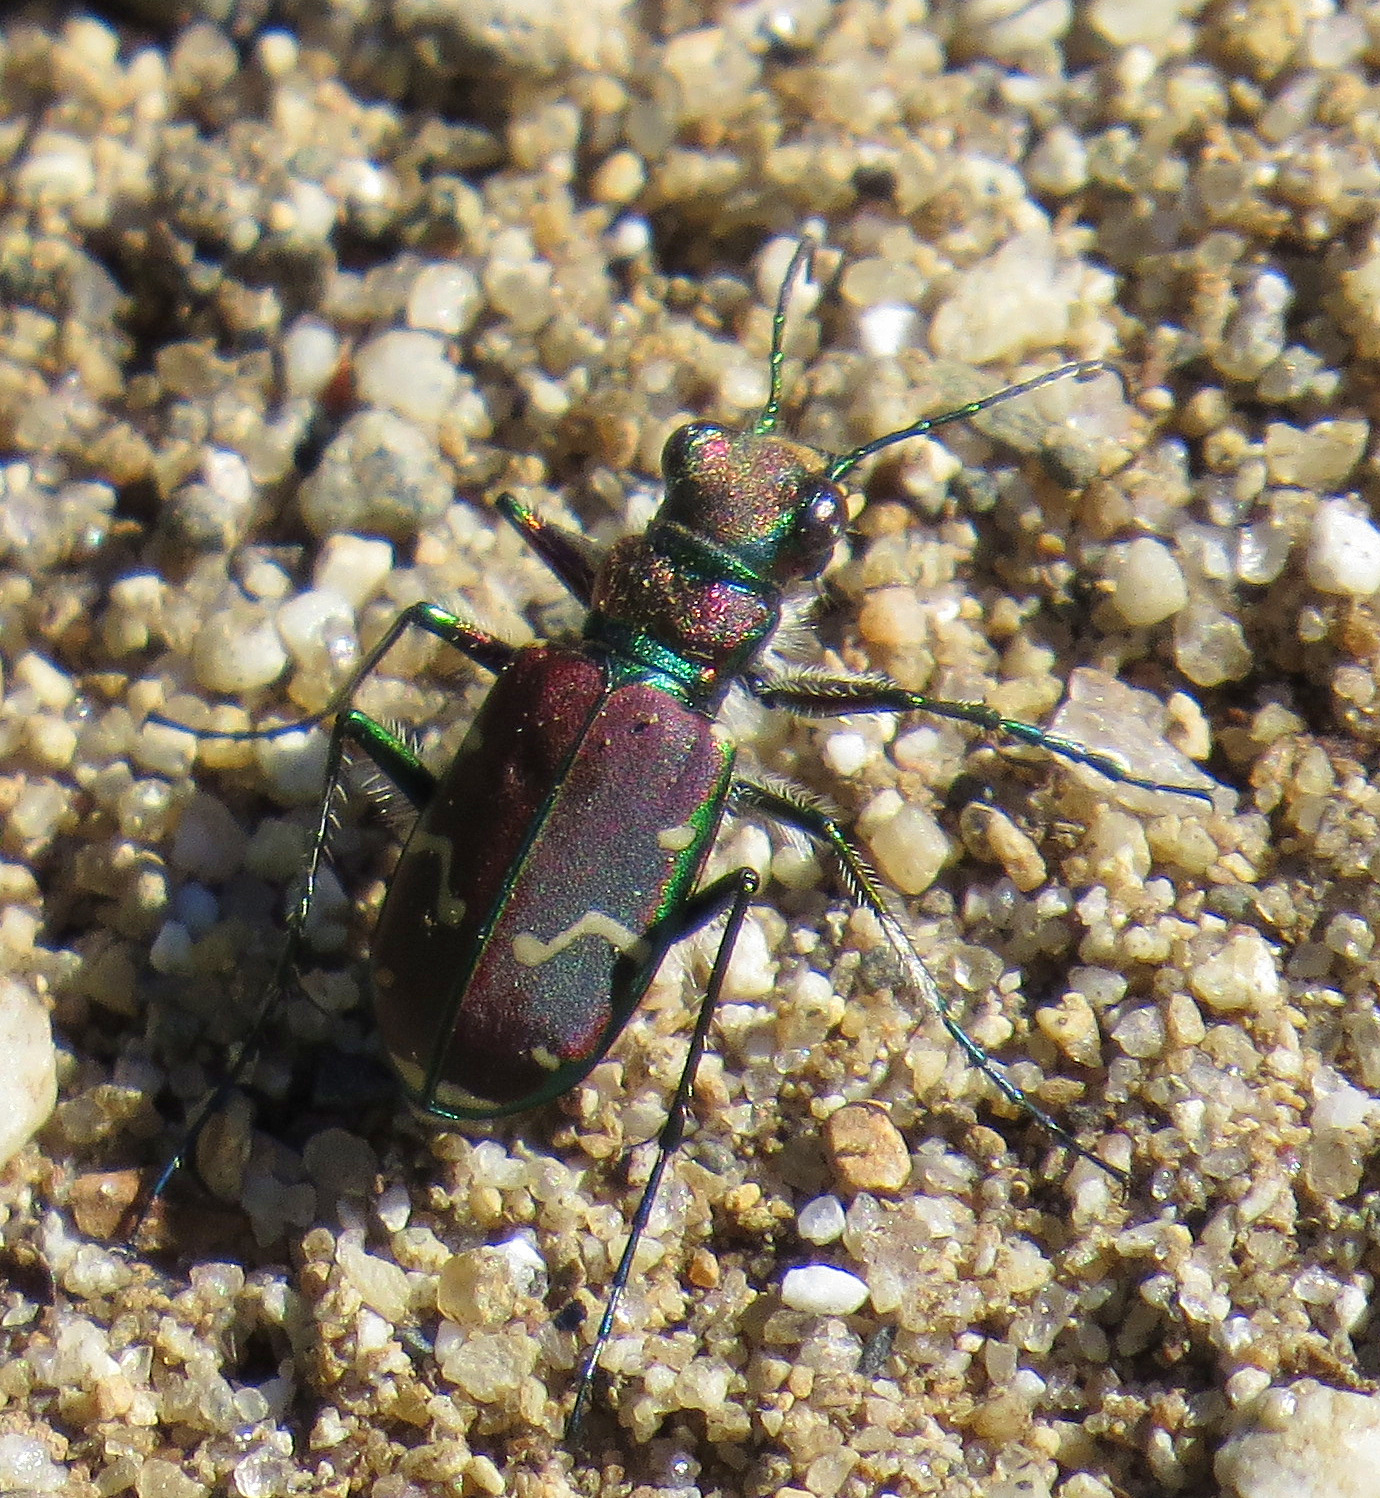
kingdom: Animalia
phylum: Arthropoda
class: Insecta
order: Coleoptera
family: Carabidae
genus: Cicindela
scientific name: Cicindela limbalis
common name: Common claybank tiger beetle
